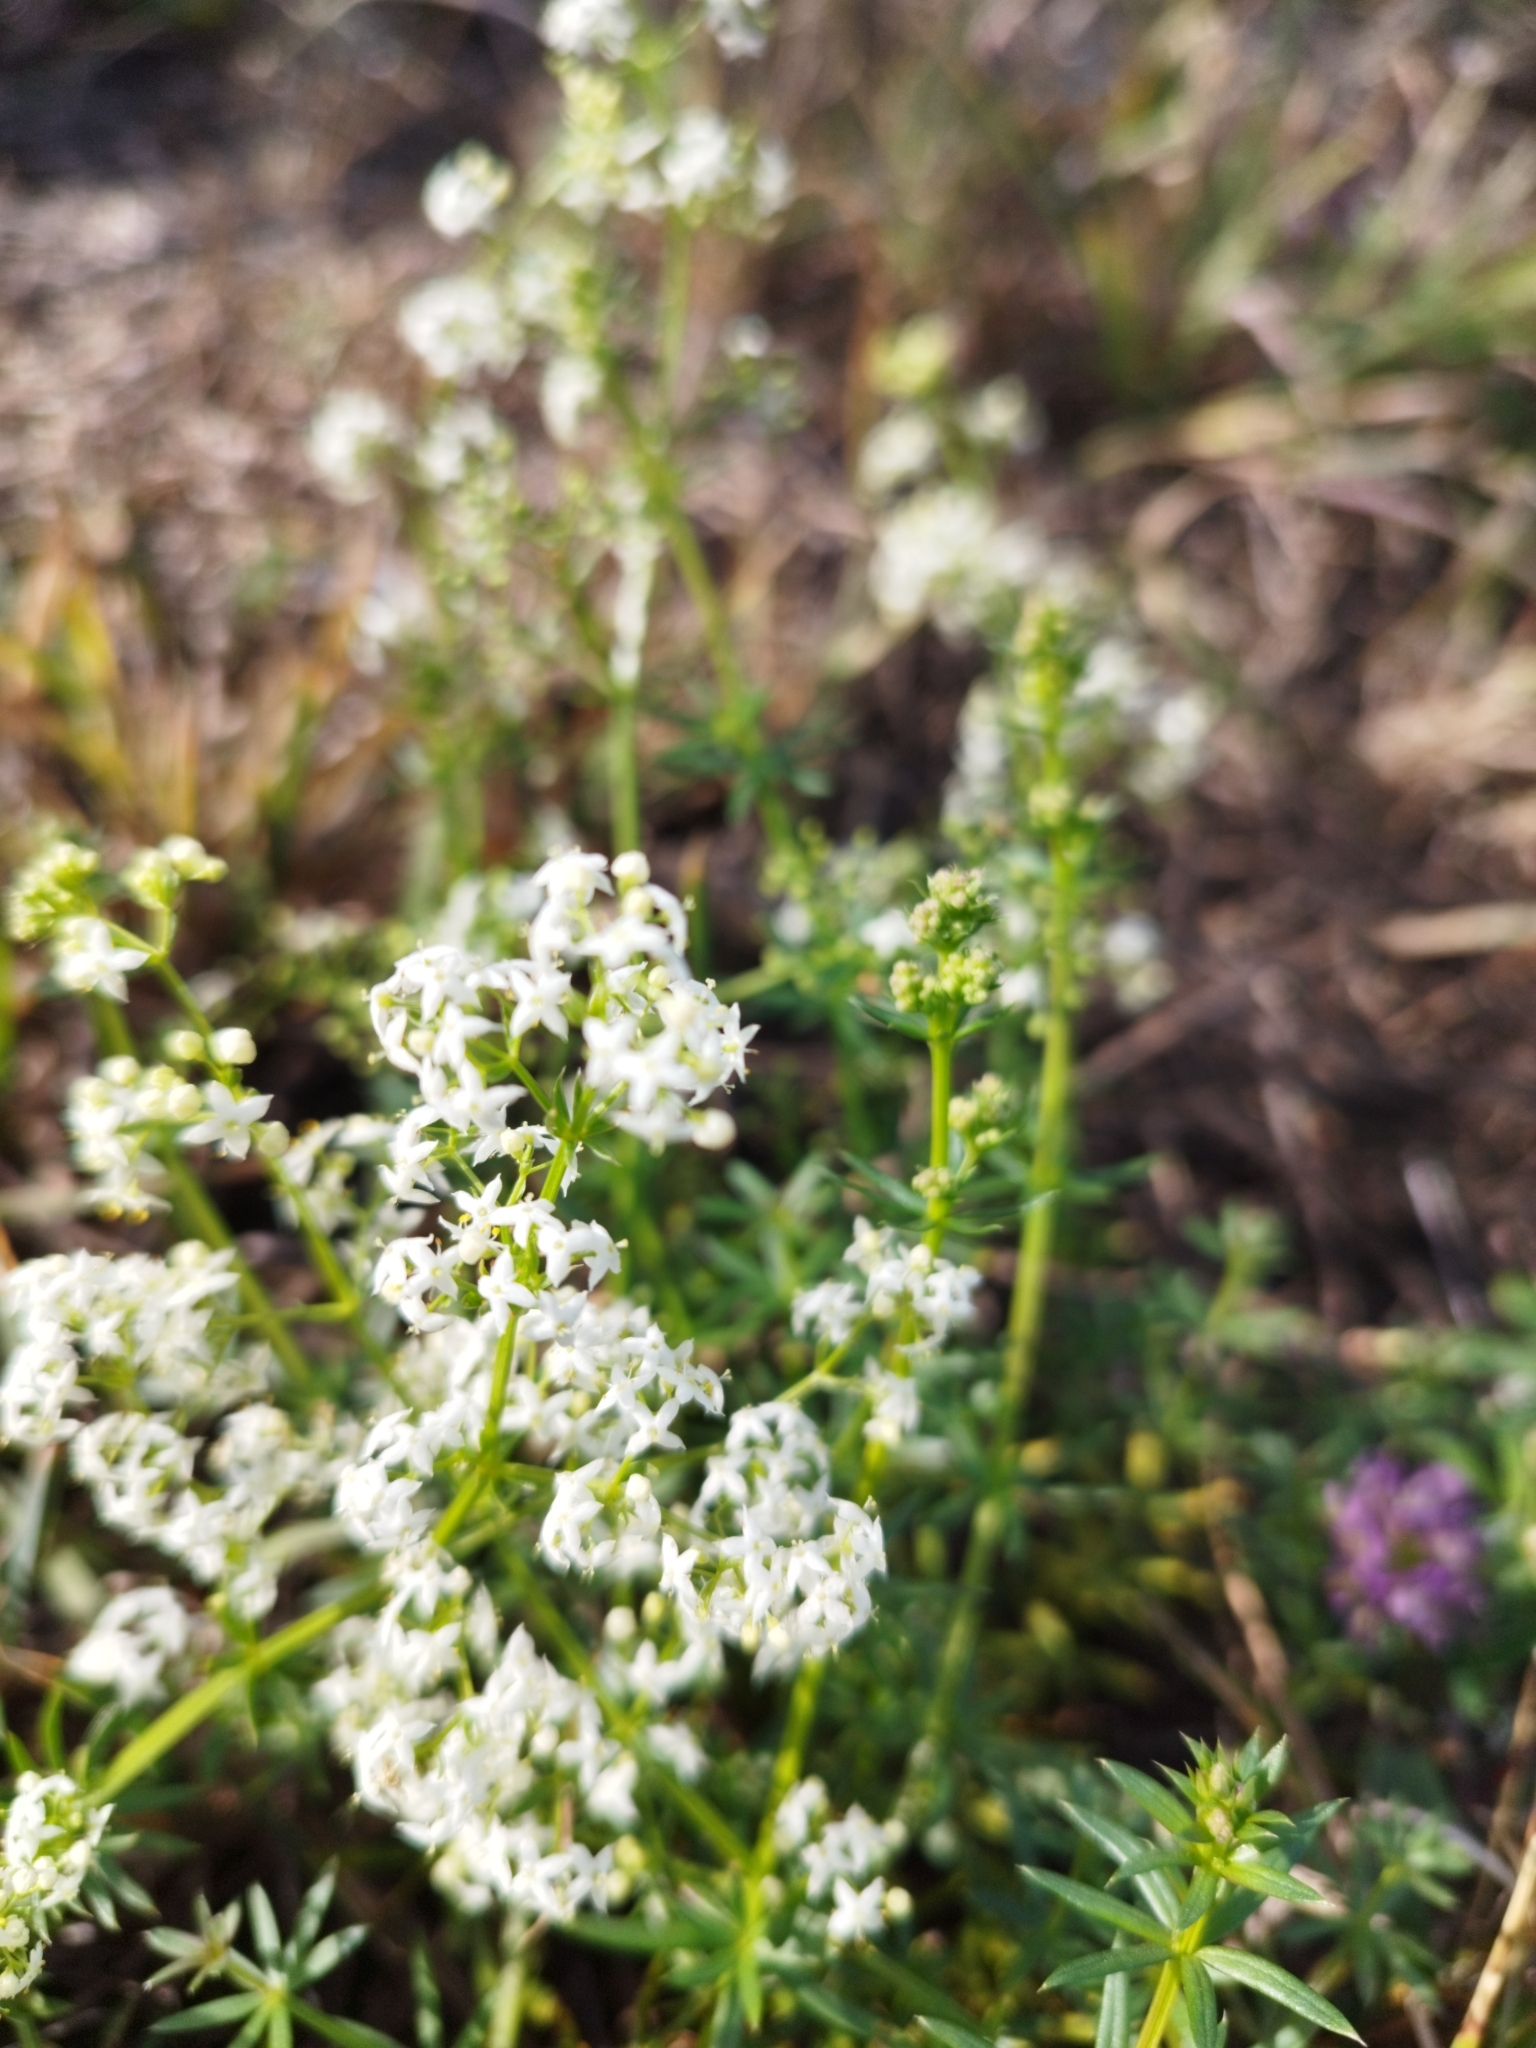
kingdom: Plantae
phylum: Tracheophyta
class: Magnoliopsida
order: Gentianales
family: Rubiaceae
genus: Galium
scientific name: Galium mollugo
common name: Hedge bedstraw
